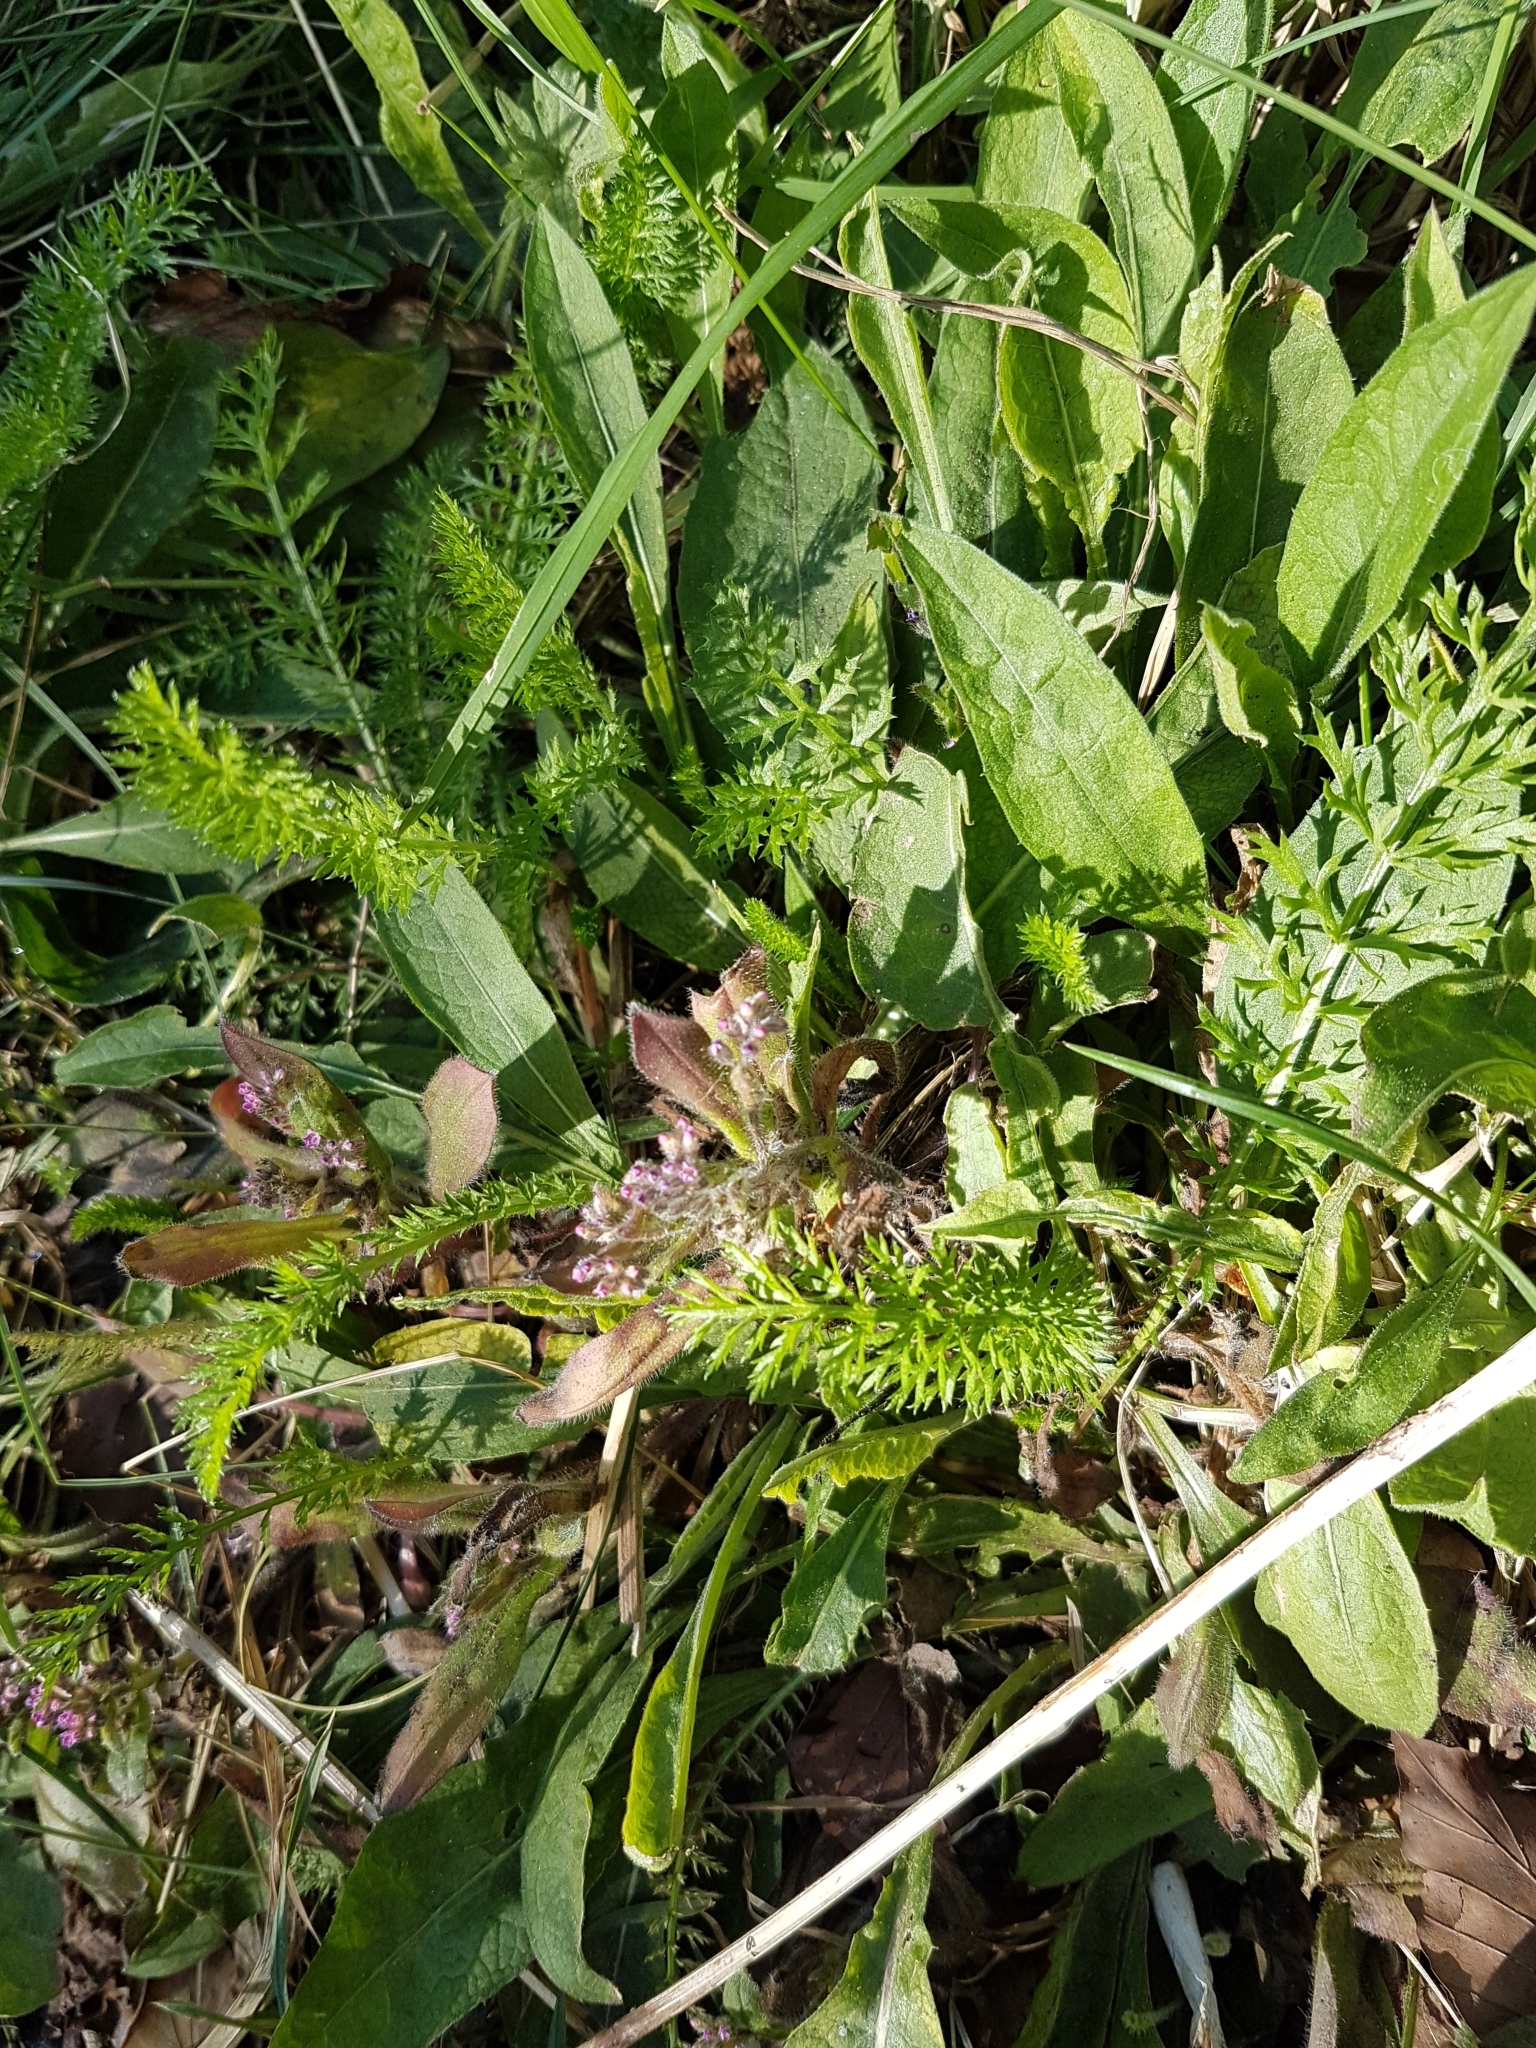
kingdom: Plantae
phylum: Tracheophyta
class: Magnoliopsida
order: Asterales
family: Asteraceae
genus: Achillea
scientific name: Achillea millefolium
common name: Yarrow
